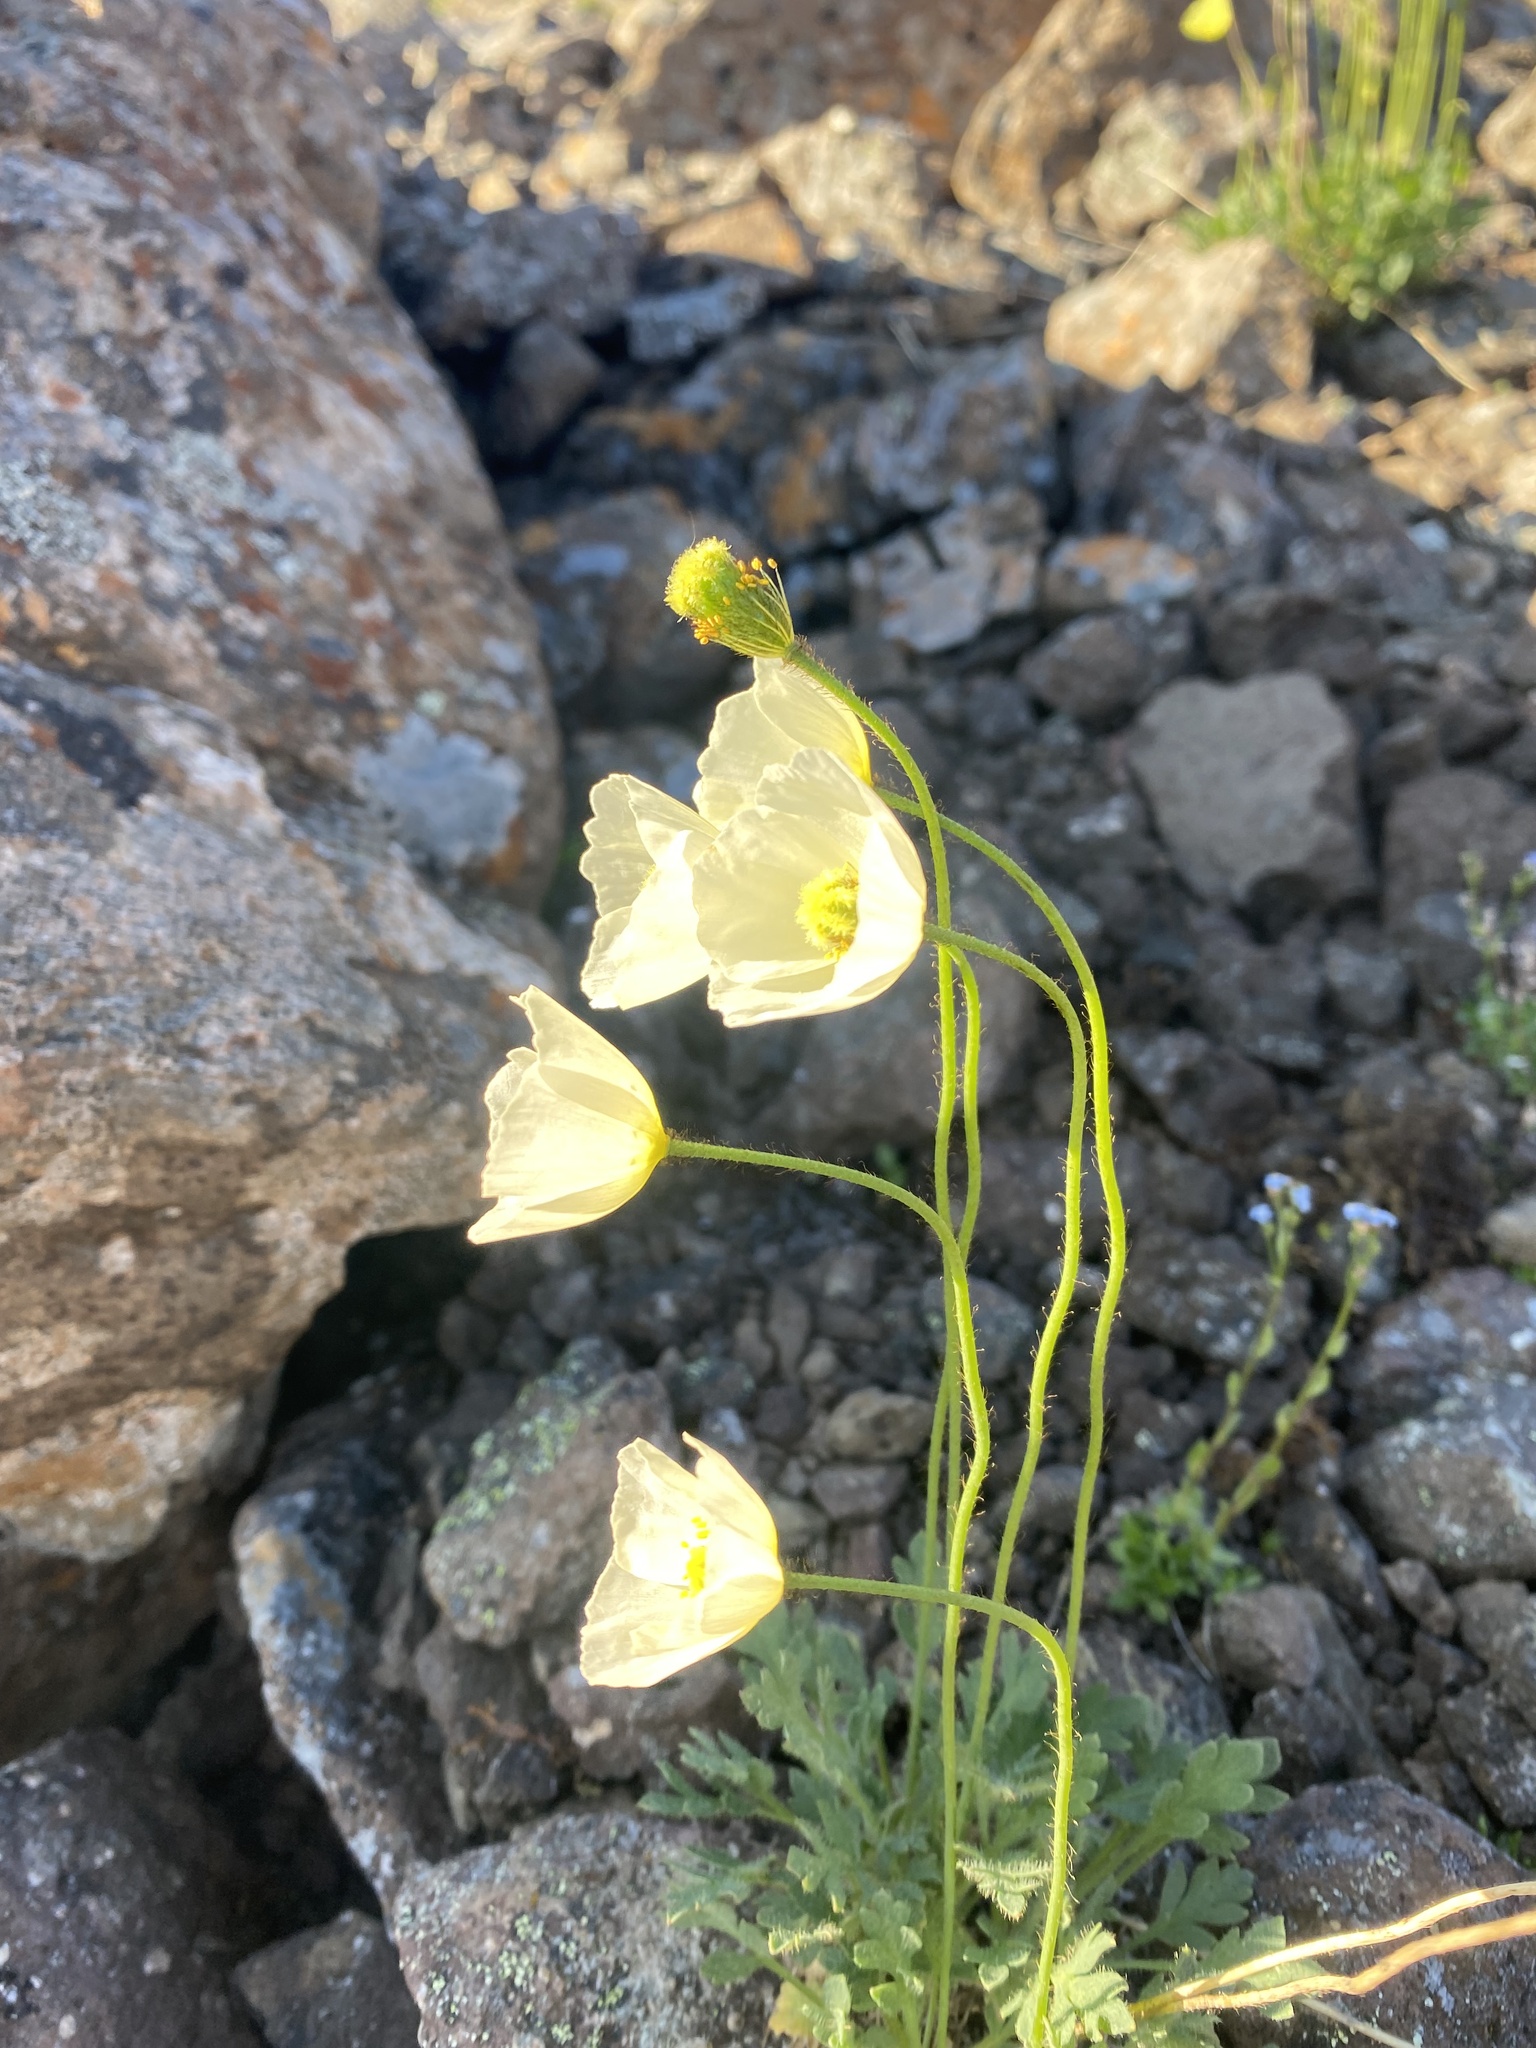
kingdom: Plantae
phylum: Tracheophyta
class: Magnoliopsida
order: Ranunculales
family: Papaveraceae
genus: Papaver
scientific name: Papaver variegatum
